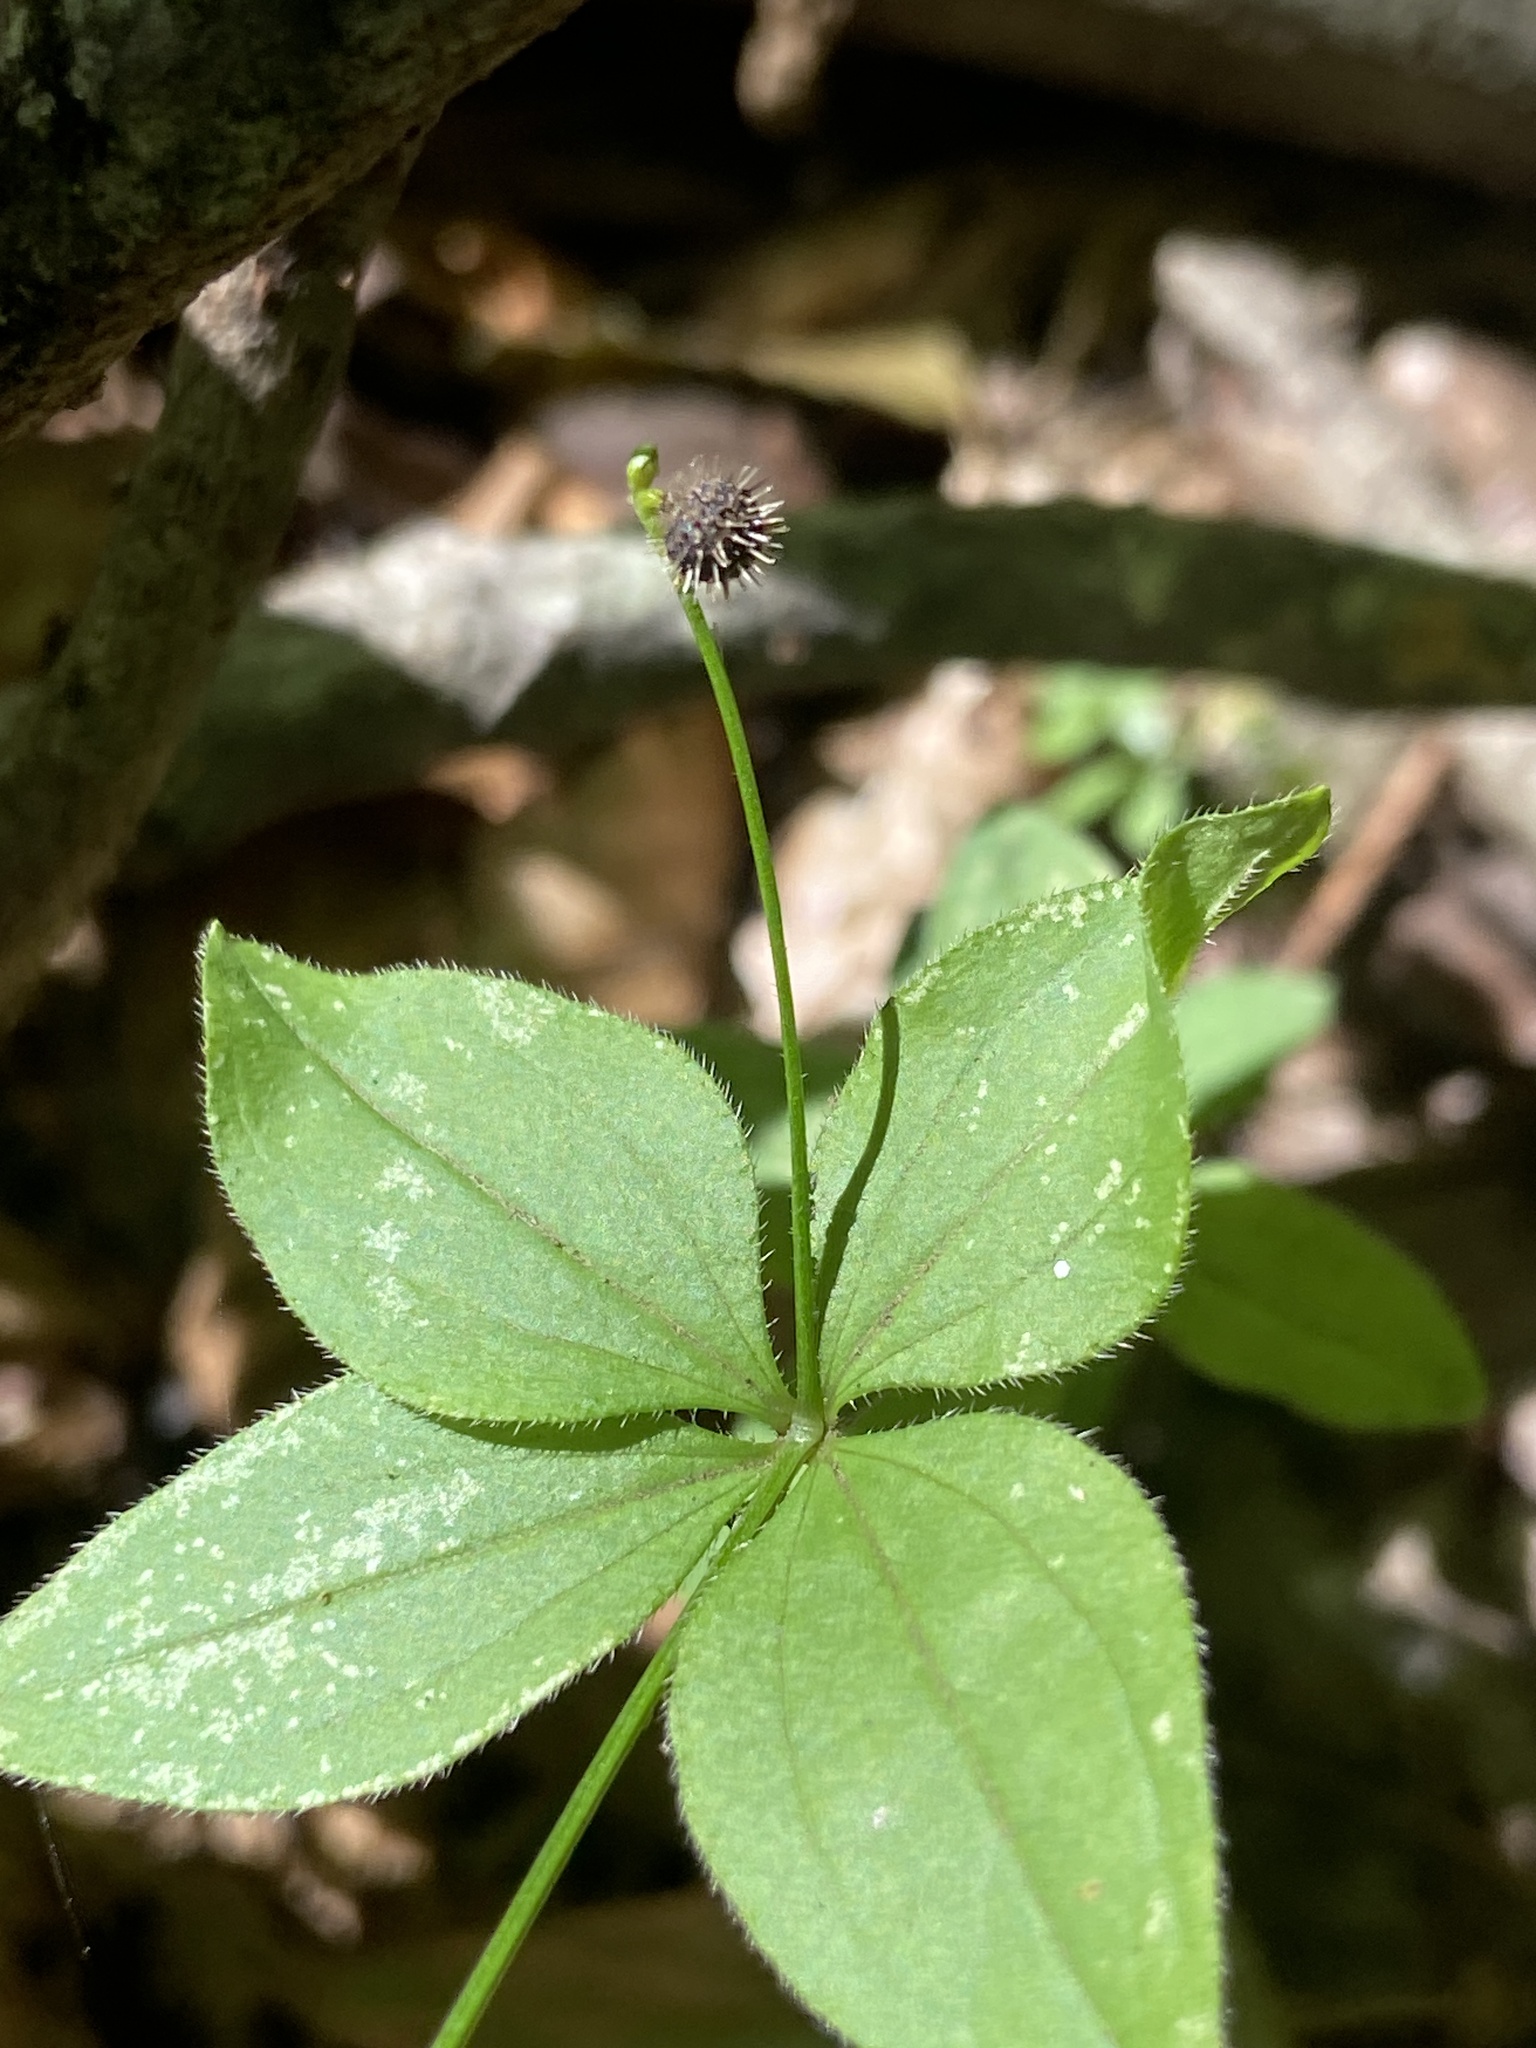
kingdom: Plantae
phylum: Tracheophyta
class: Magnoliopsida
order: Gentianales
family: Rubiaceae
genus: Galium
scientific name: Galium circaezans
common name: Forest bedstraw
